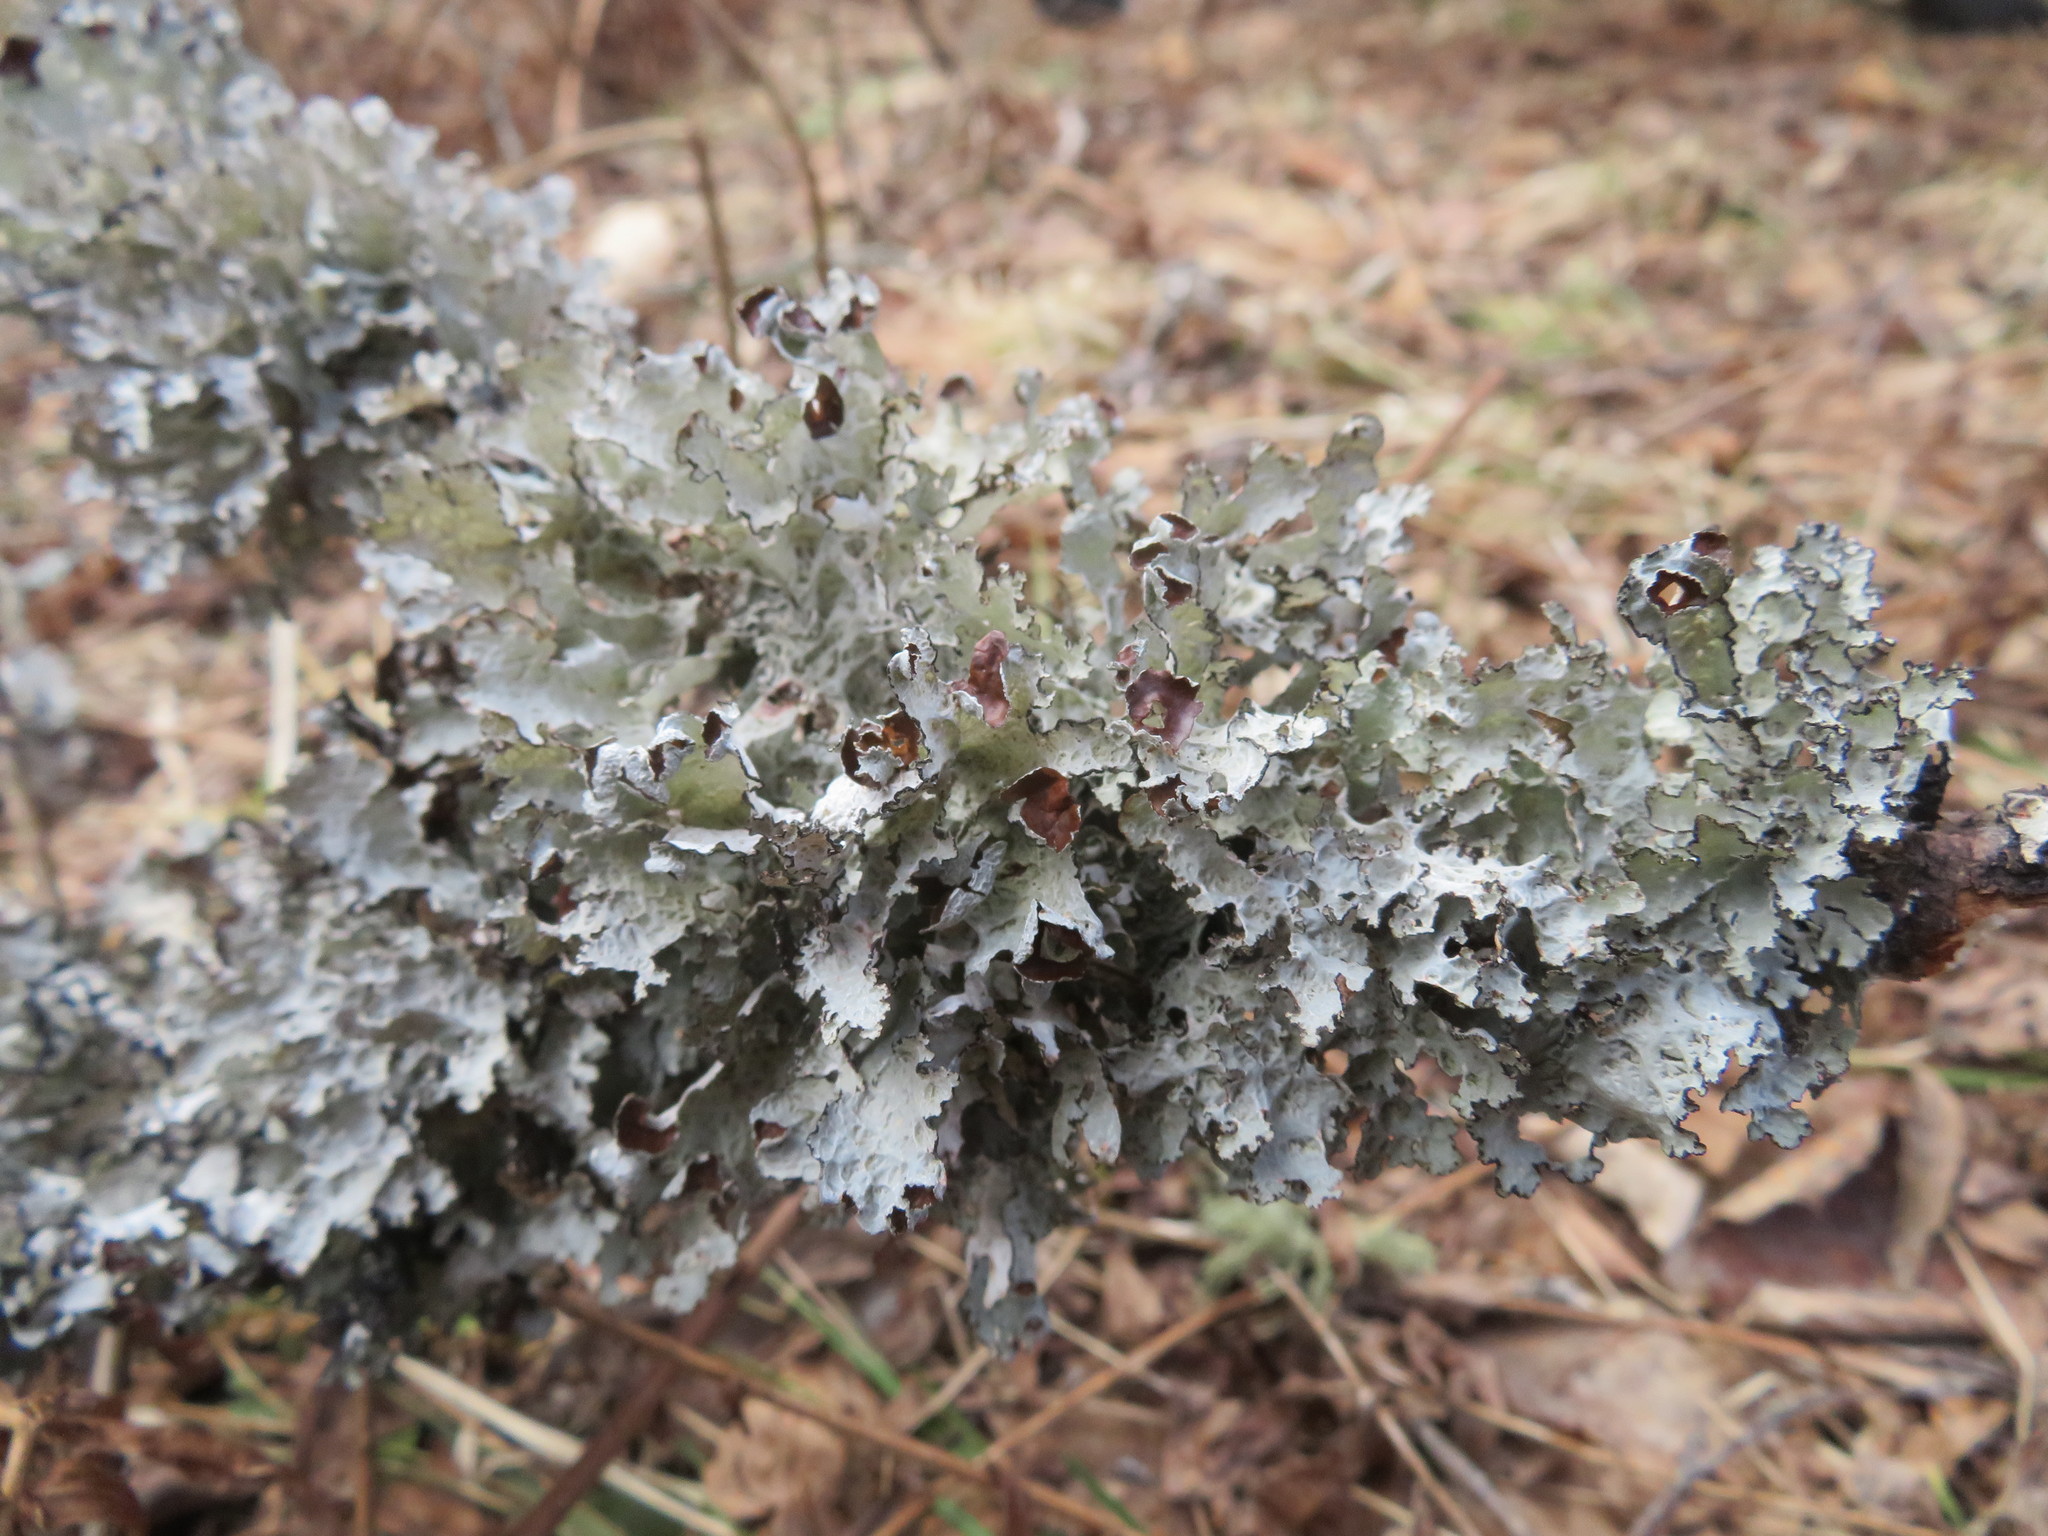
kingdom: Fungi
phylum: Ascomycota
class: Lecanoromycetes
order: Lecanorales
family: Parmeliaceae
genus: Platismatia
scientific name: Platismatia tuckermanii
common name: Crumpled rag lichen
